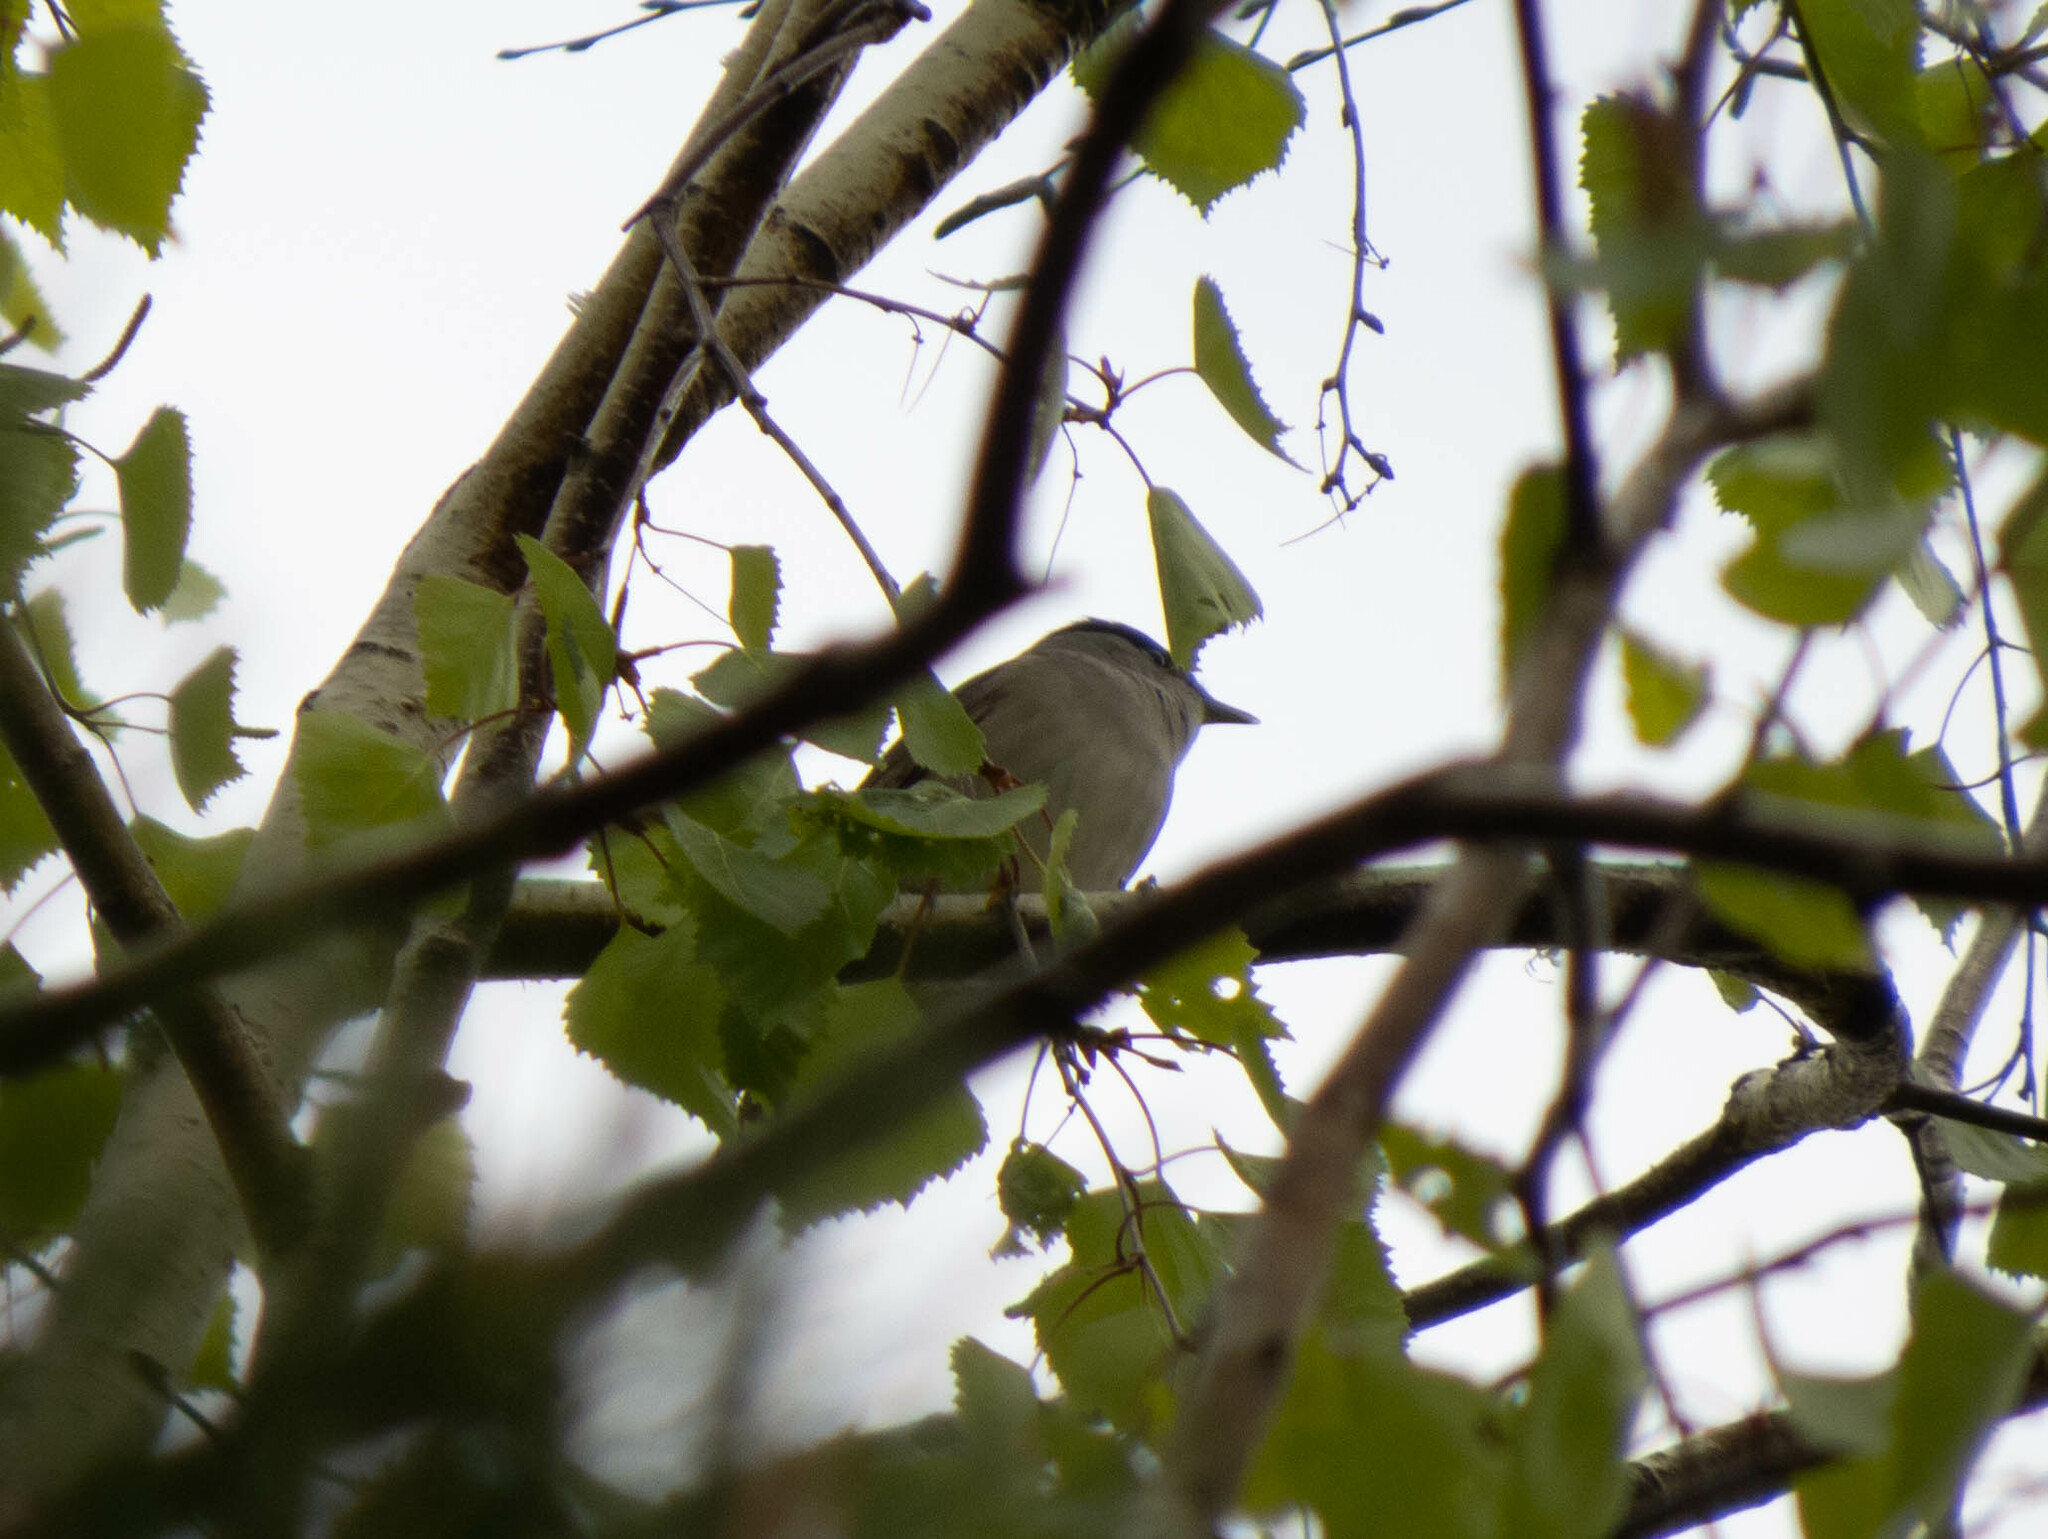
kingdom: Animalia
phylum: Chordata
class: Aves
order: Passeriformes
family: Sylviidae
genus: Sylvia
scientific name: Sylvia atricapilla
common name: Eurasian blackcap
